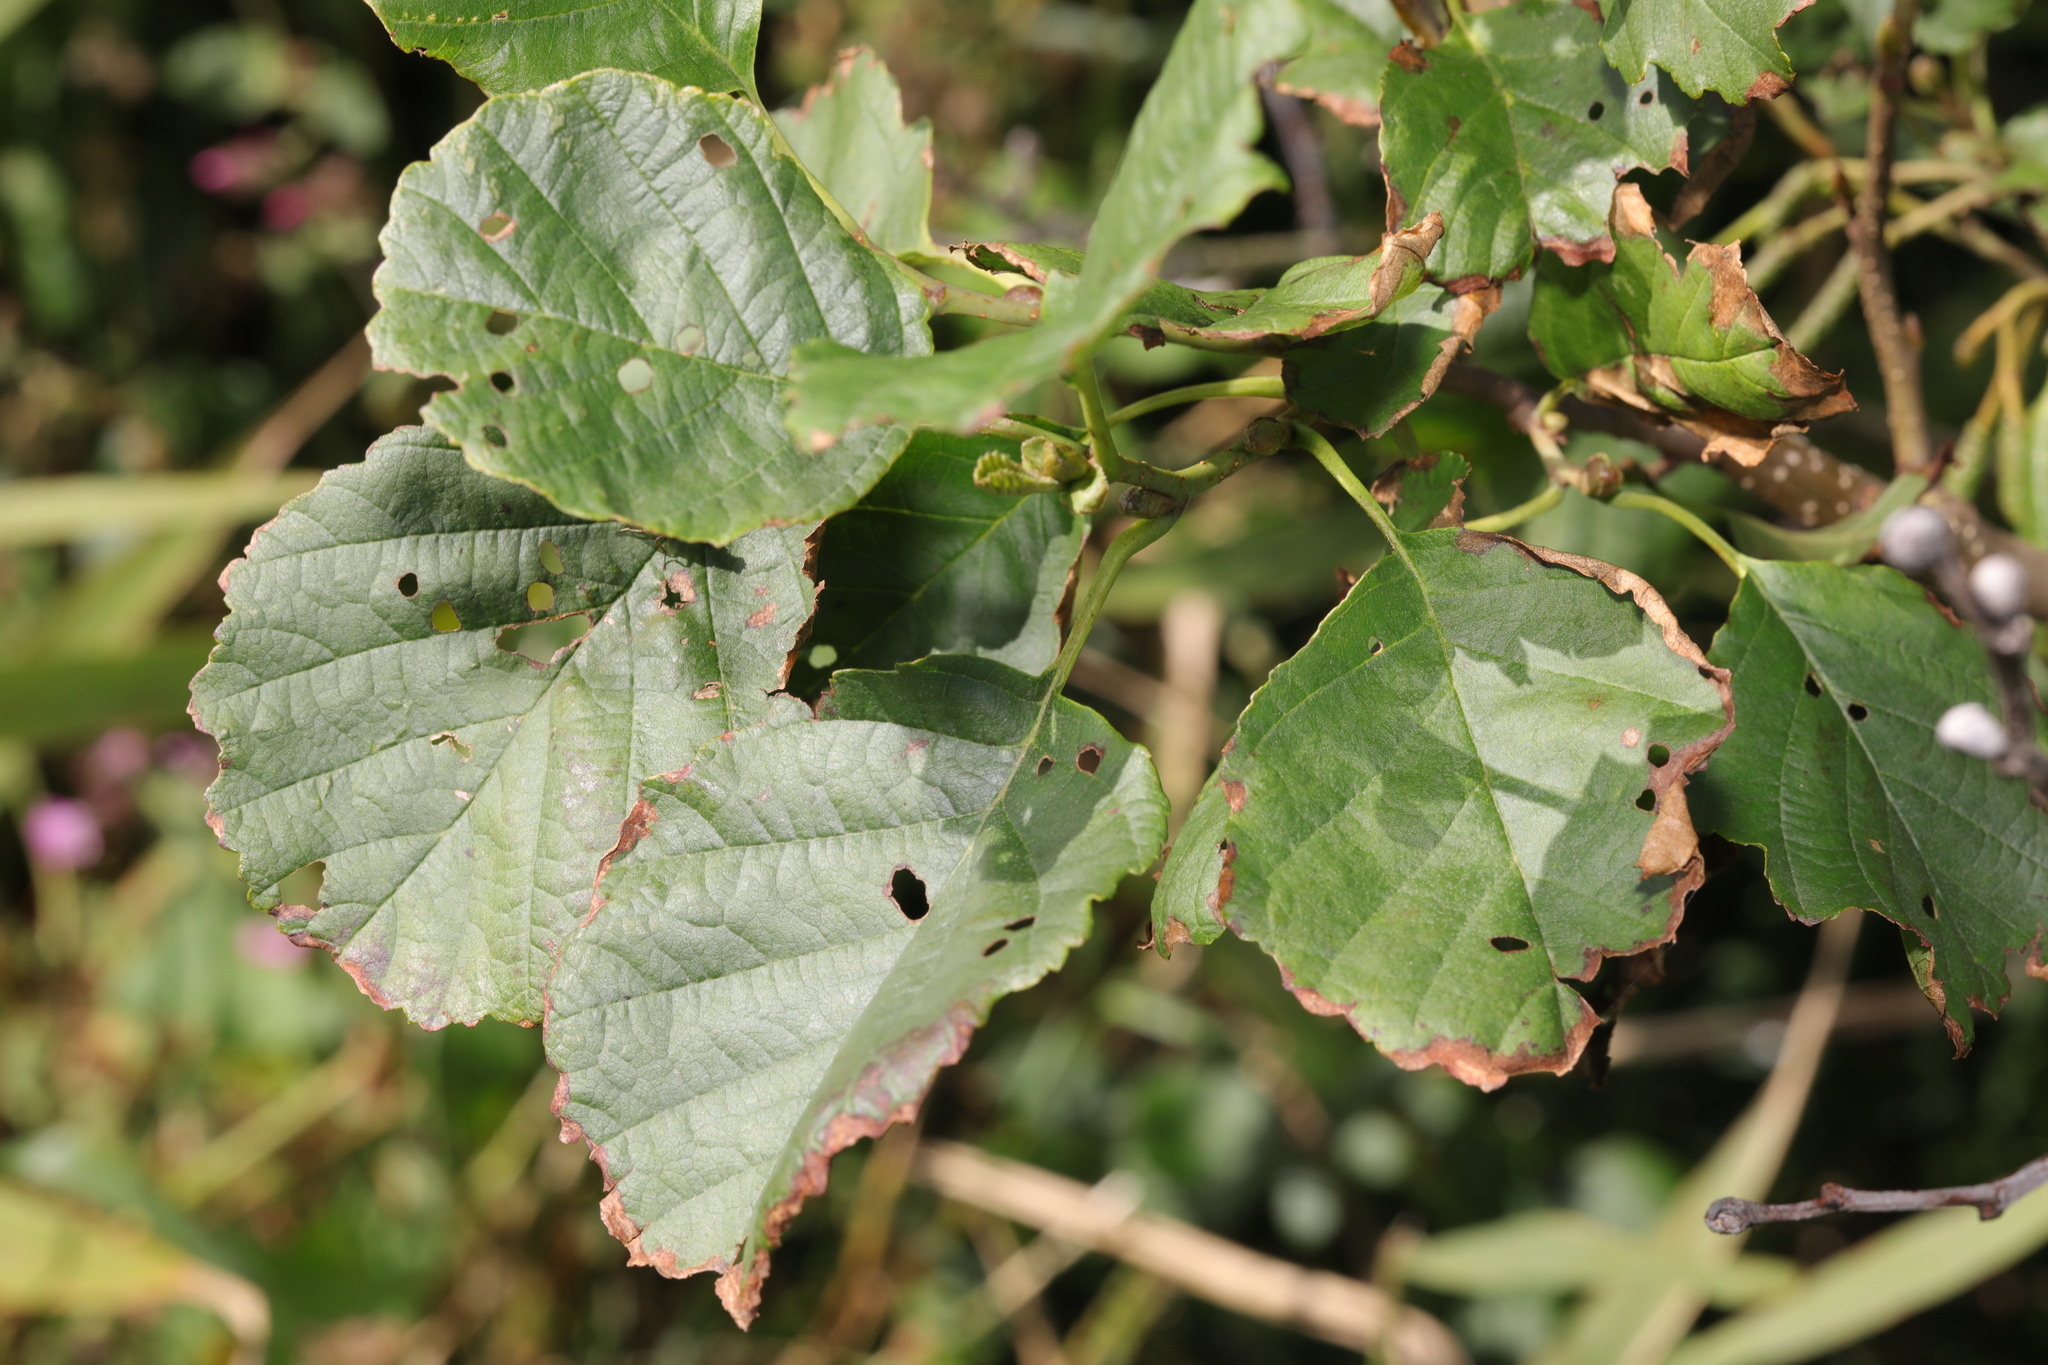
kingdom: Plantae
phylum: Tracheophyta
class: Magnoliopsida
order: Fagales
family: Betulaceae
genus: Alnus
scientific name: Alnus glutinosa
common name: Black alder
